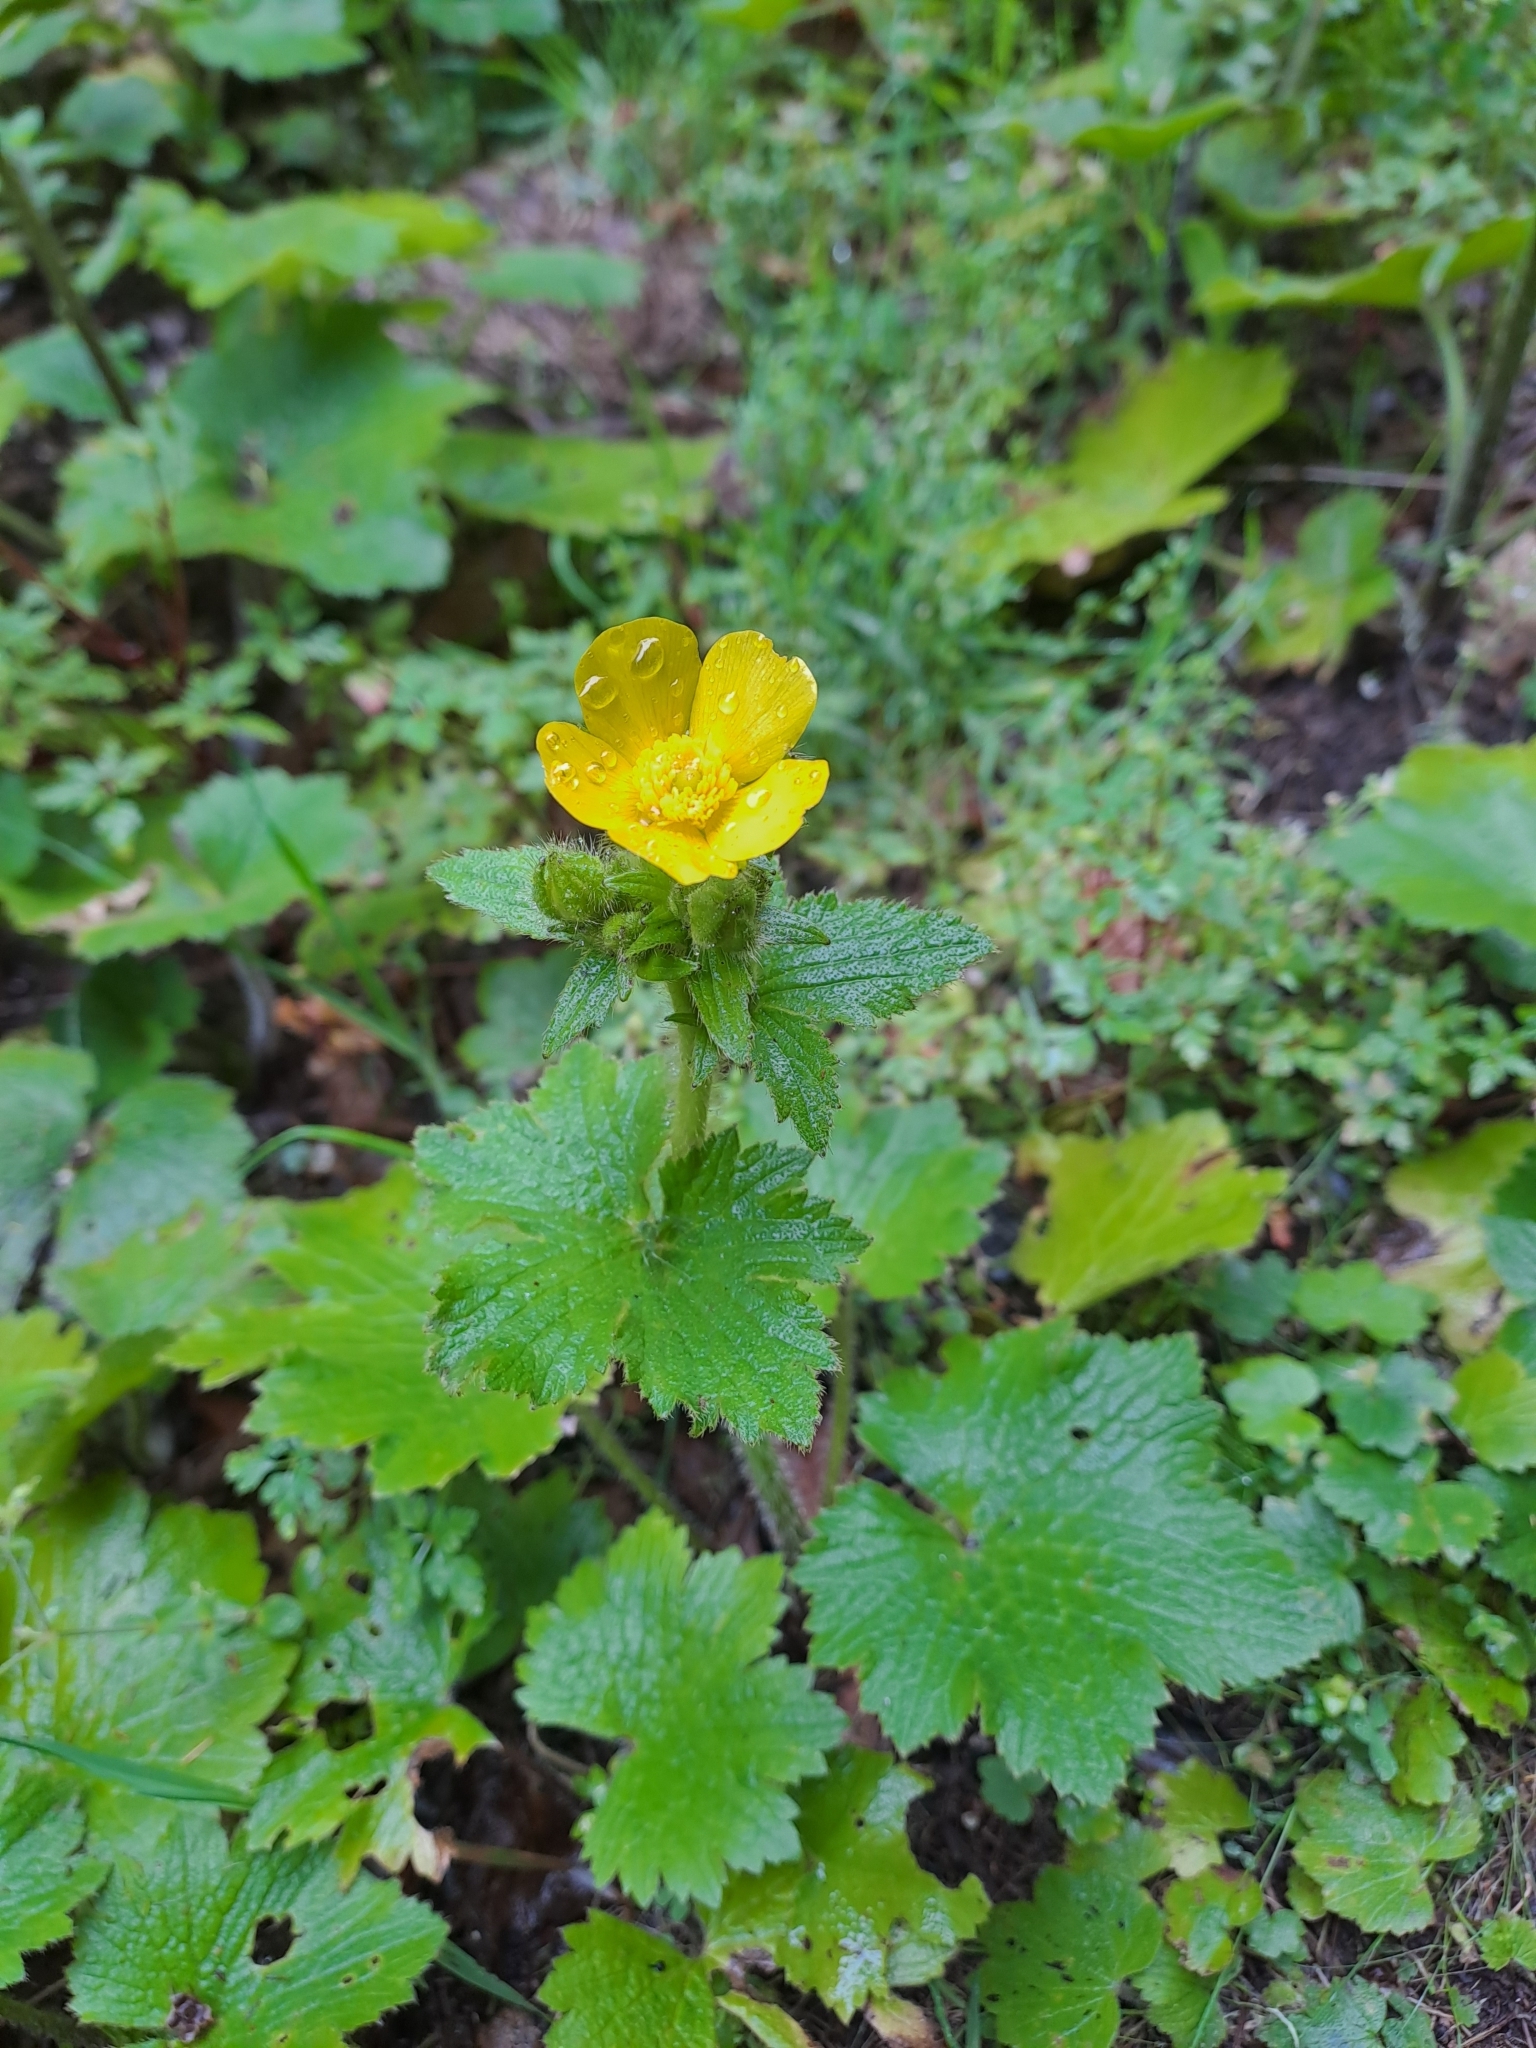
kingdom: Plantae
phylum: Tracheophyta
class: Magnoliopsida
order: Ranunculales
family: Ranunculaceae
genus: Ranunculus
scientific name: Ranunculus cortusifolius
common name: Azores buttercup
